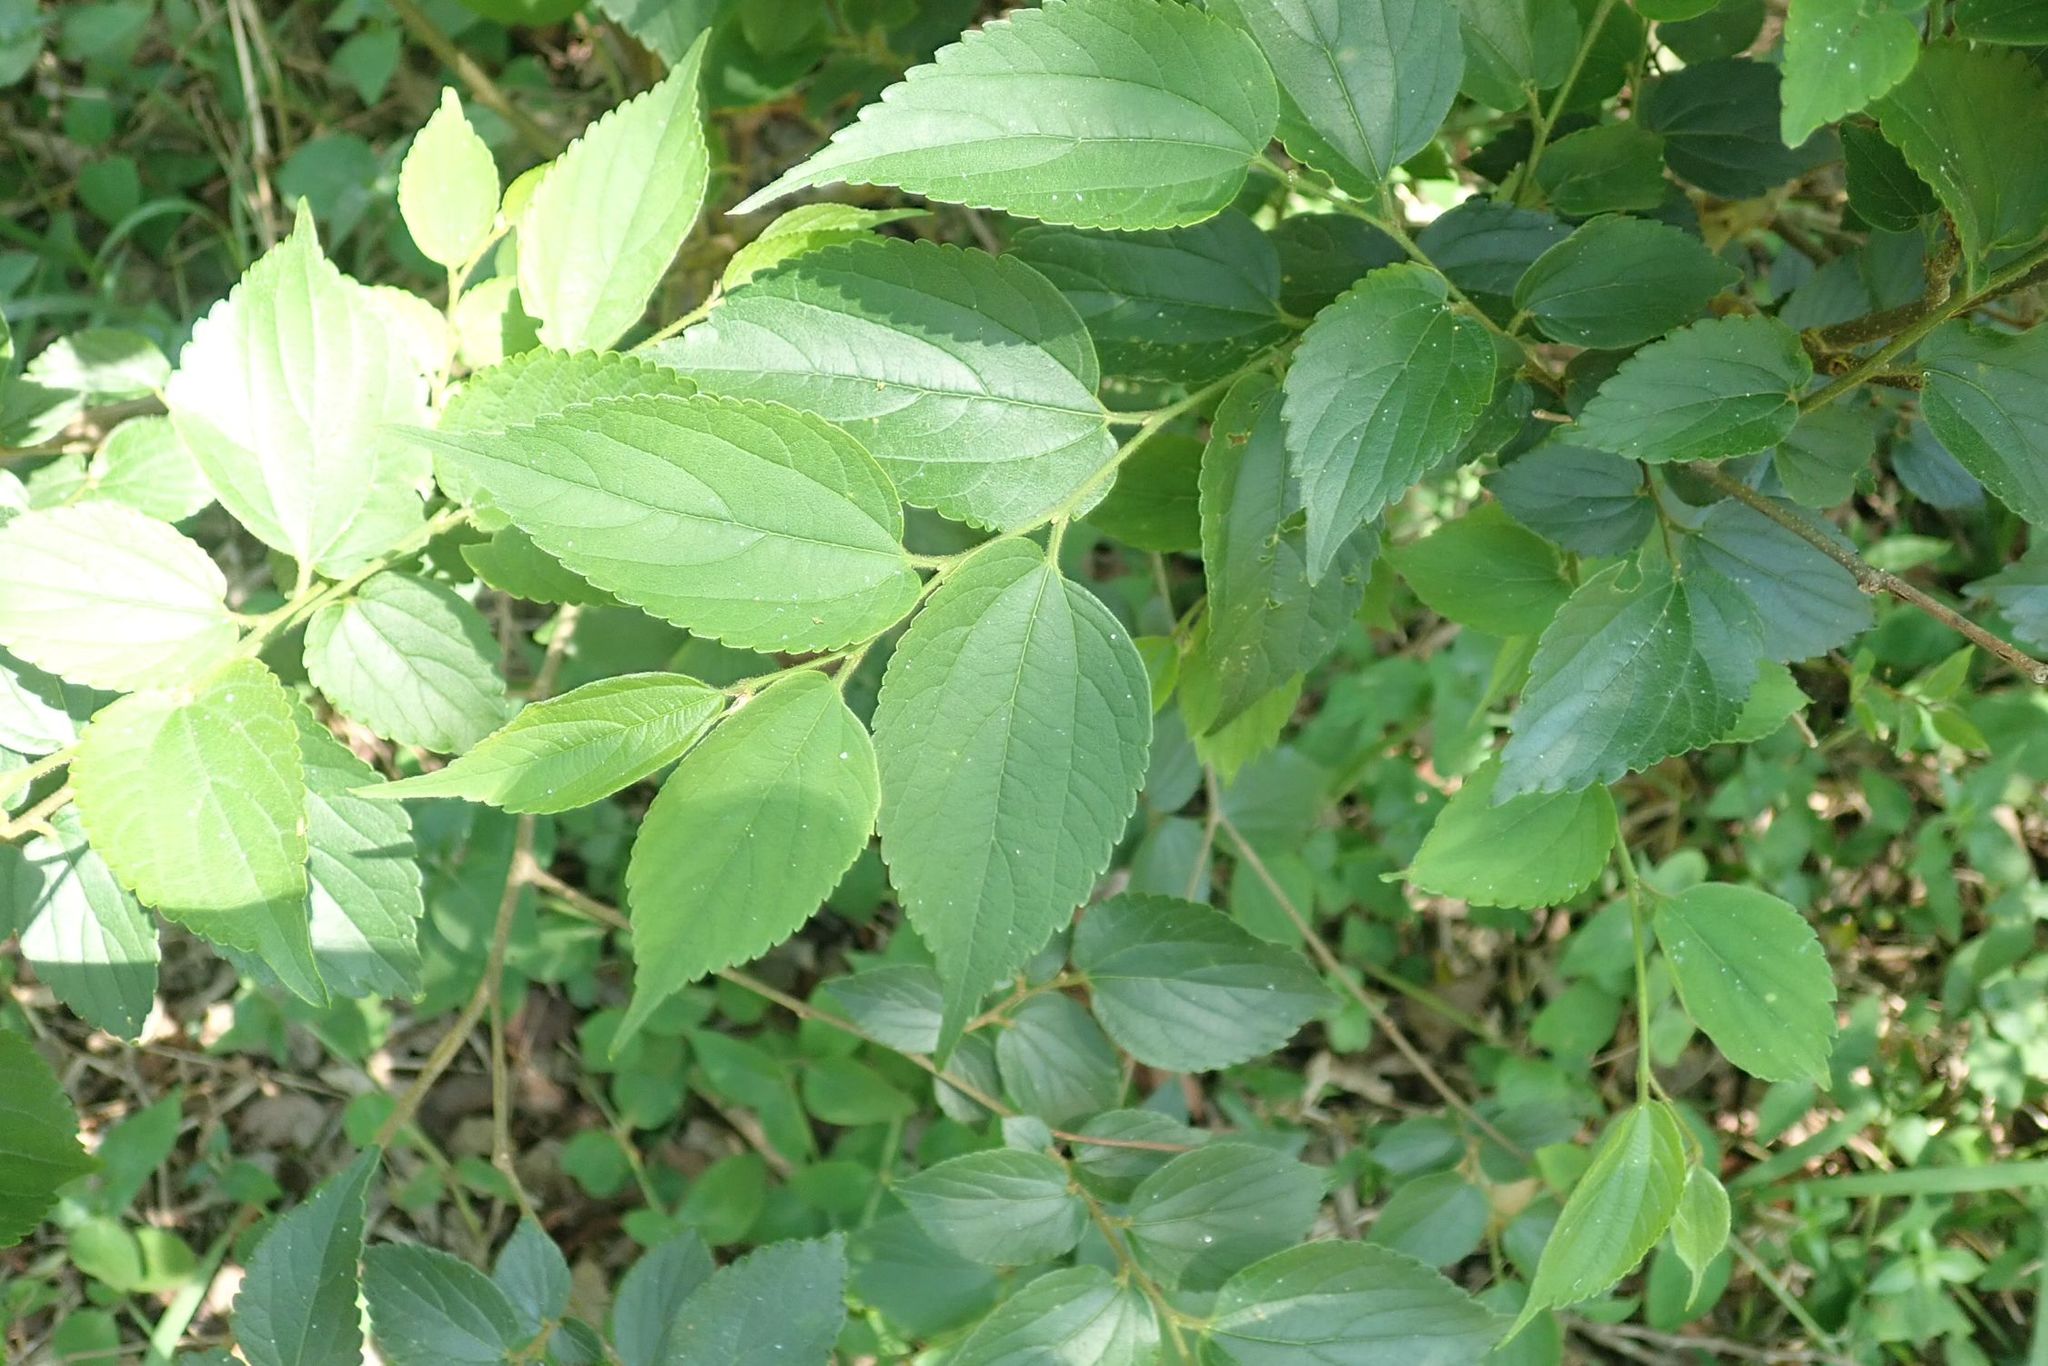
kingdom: Plantae
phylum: Tracheophyta
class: Magnoliopsida
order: Rosales
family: Cannabaceae
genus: Celtis
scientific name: Celtis africana
